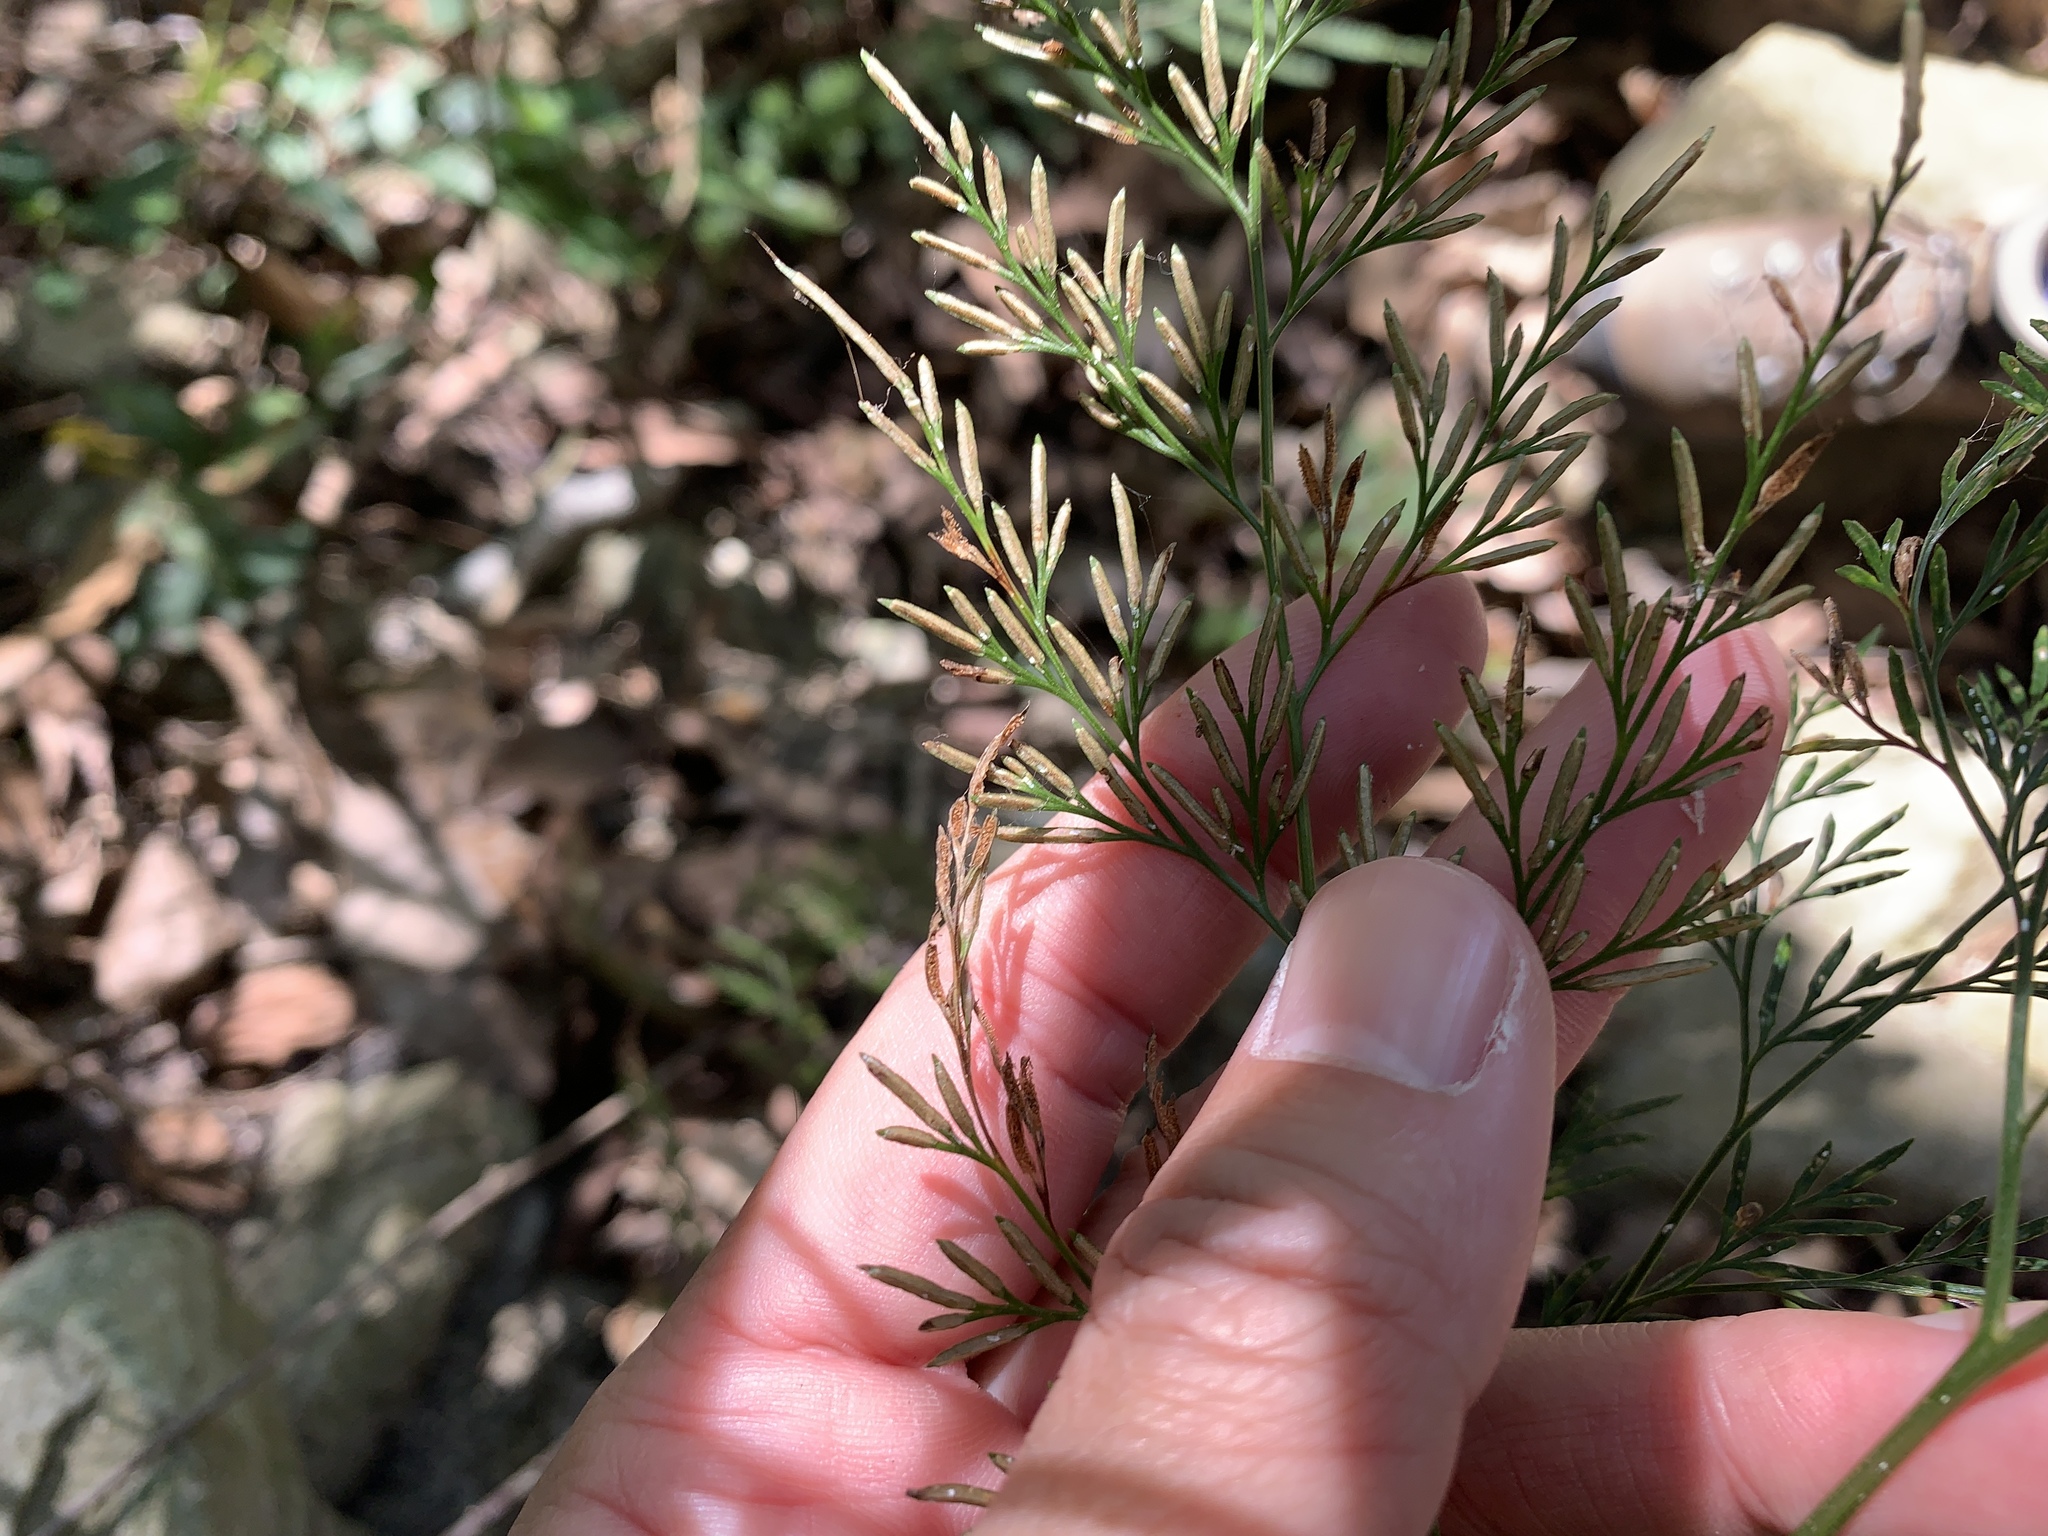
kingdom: Plantae
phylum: Tracheophyta
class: Polypodiopsida
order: Polypodiales
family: Pteridaceae
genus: Onychium
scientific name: Onychium japonicum
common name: Carrot fern
